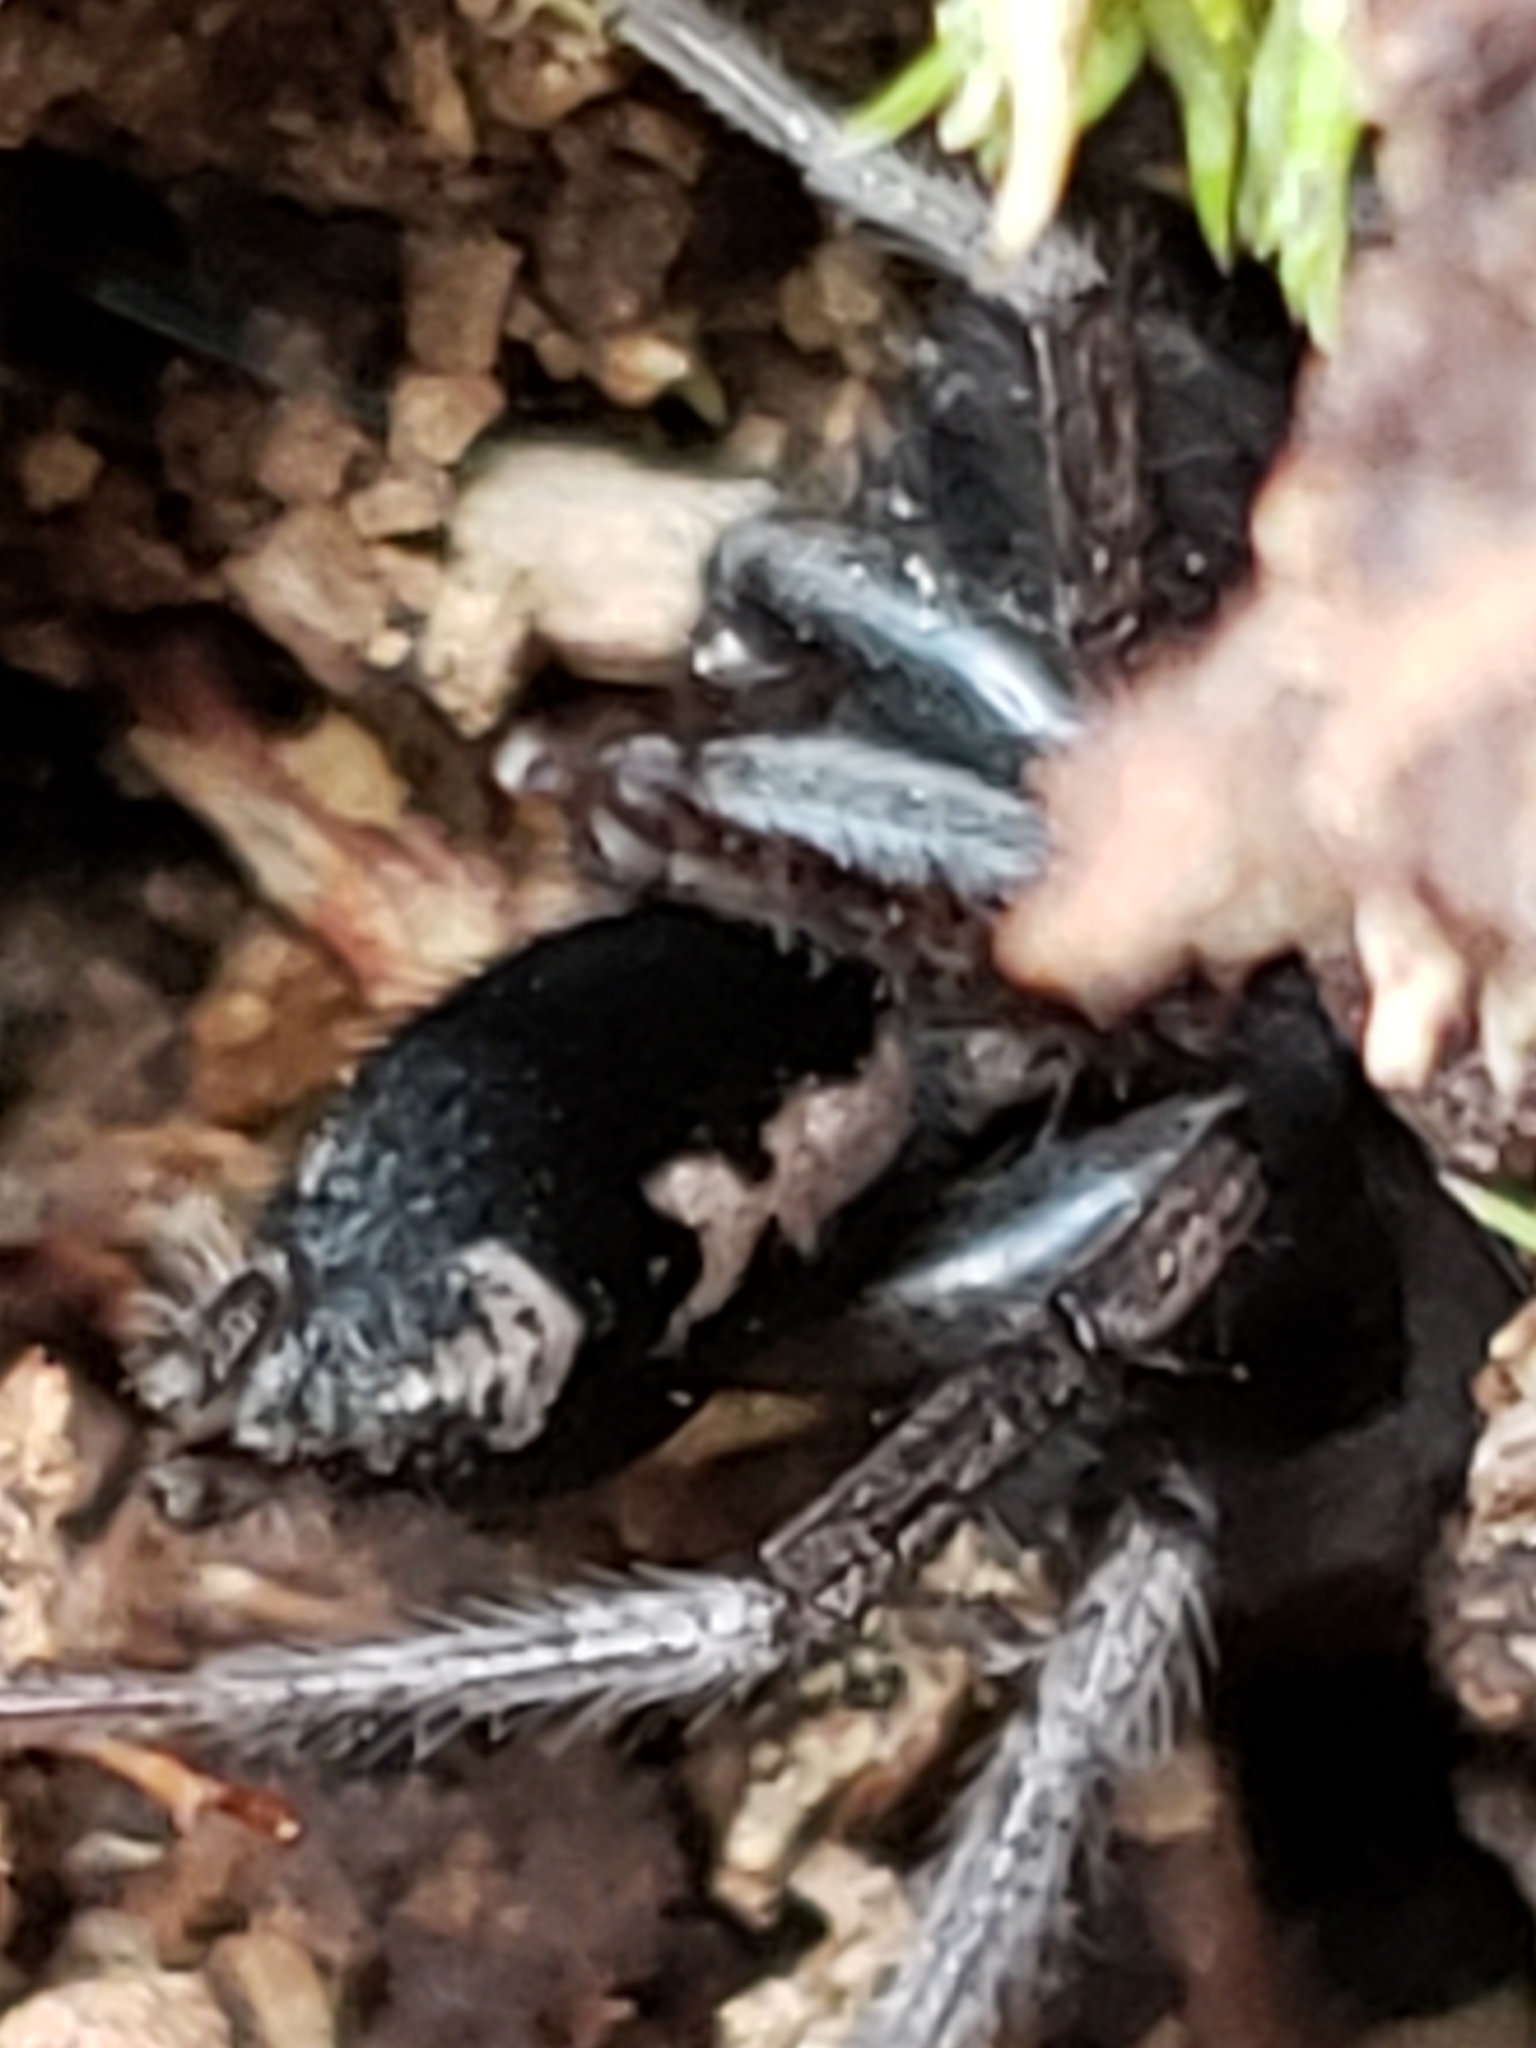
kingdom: Animalia
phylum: Arthropoda
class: Arachnida
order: Araneae
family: Gnaphosidae
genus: Herpyllus
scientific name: Herpyllus ecclesiasticus
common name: Eastern parson spider
